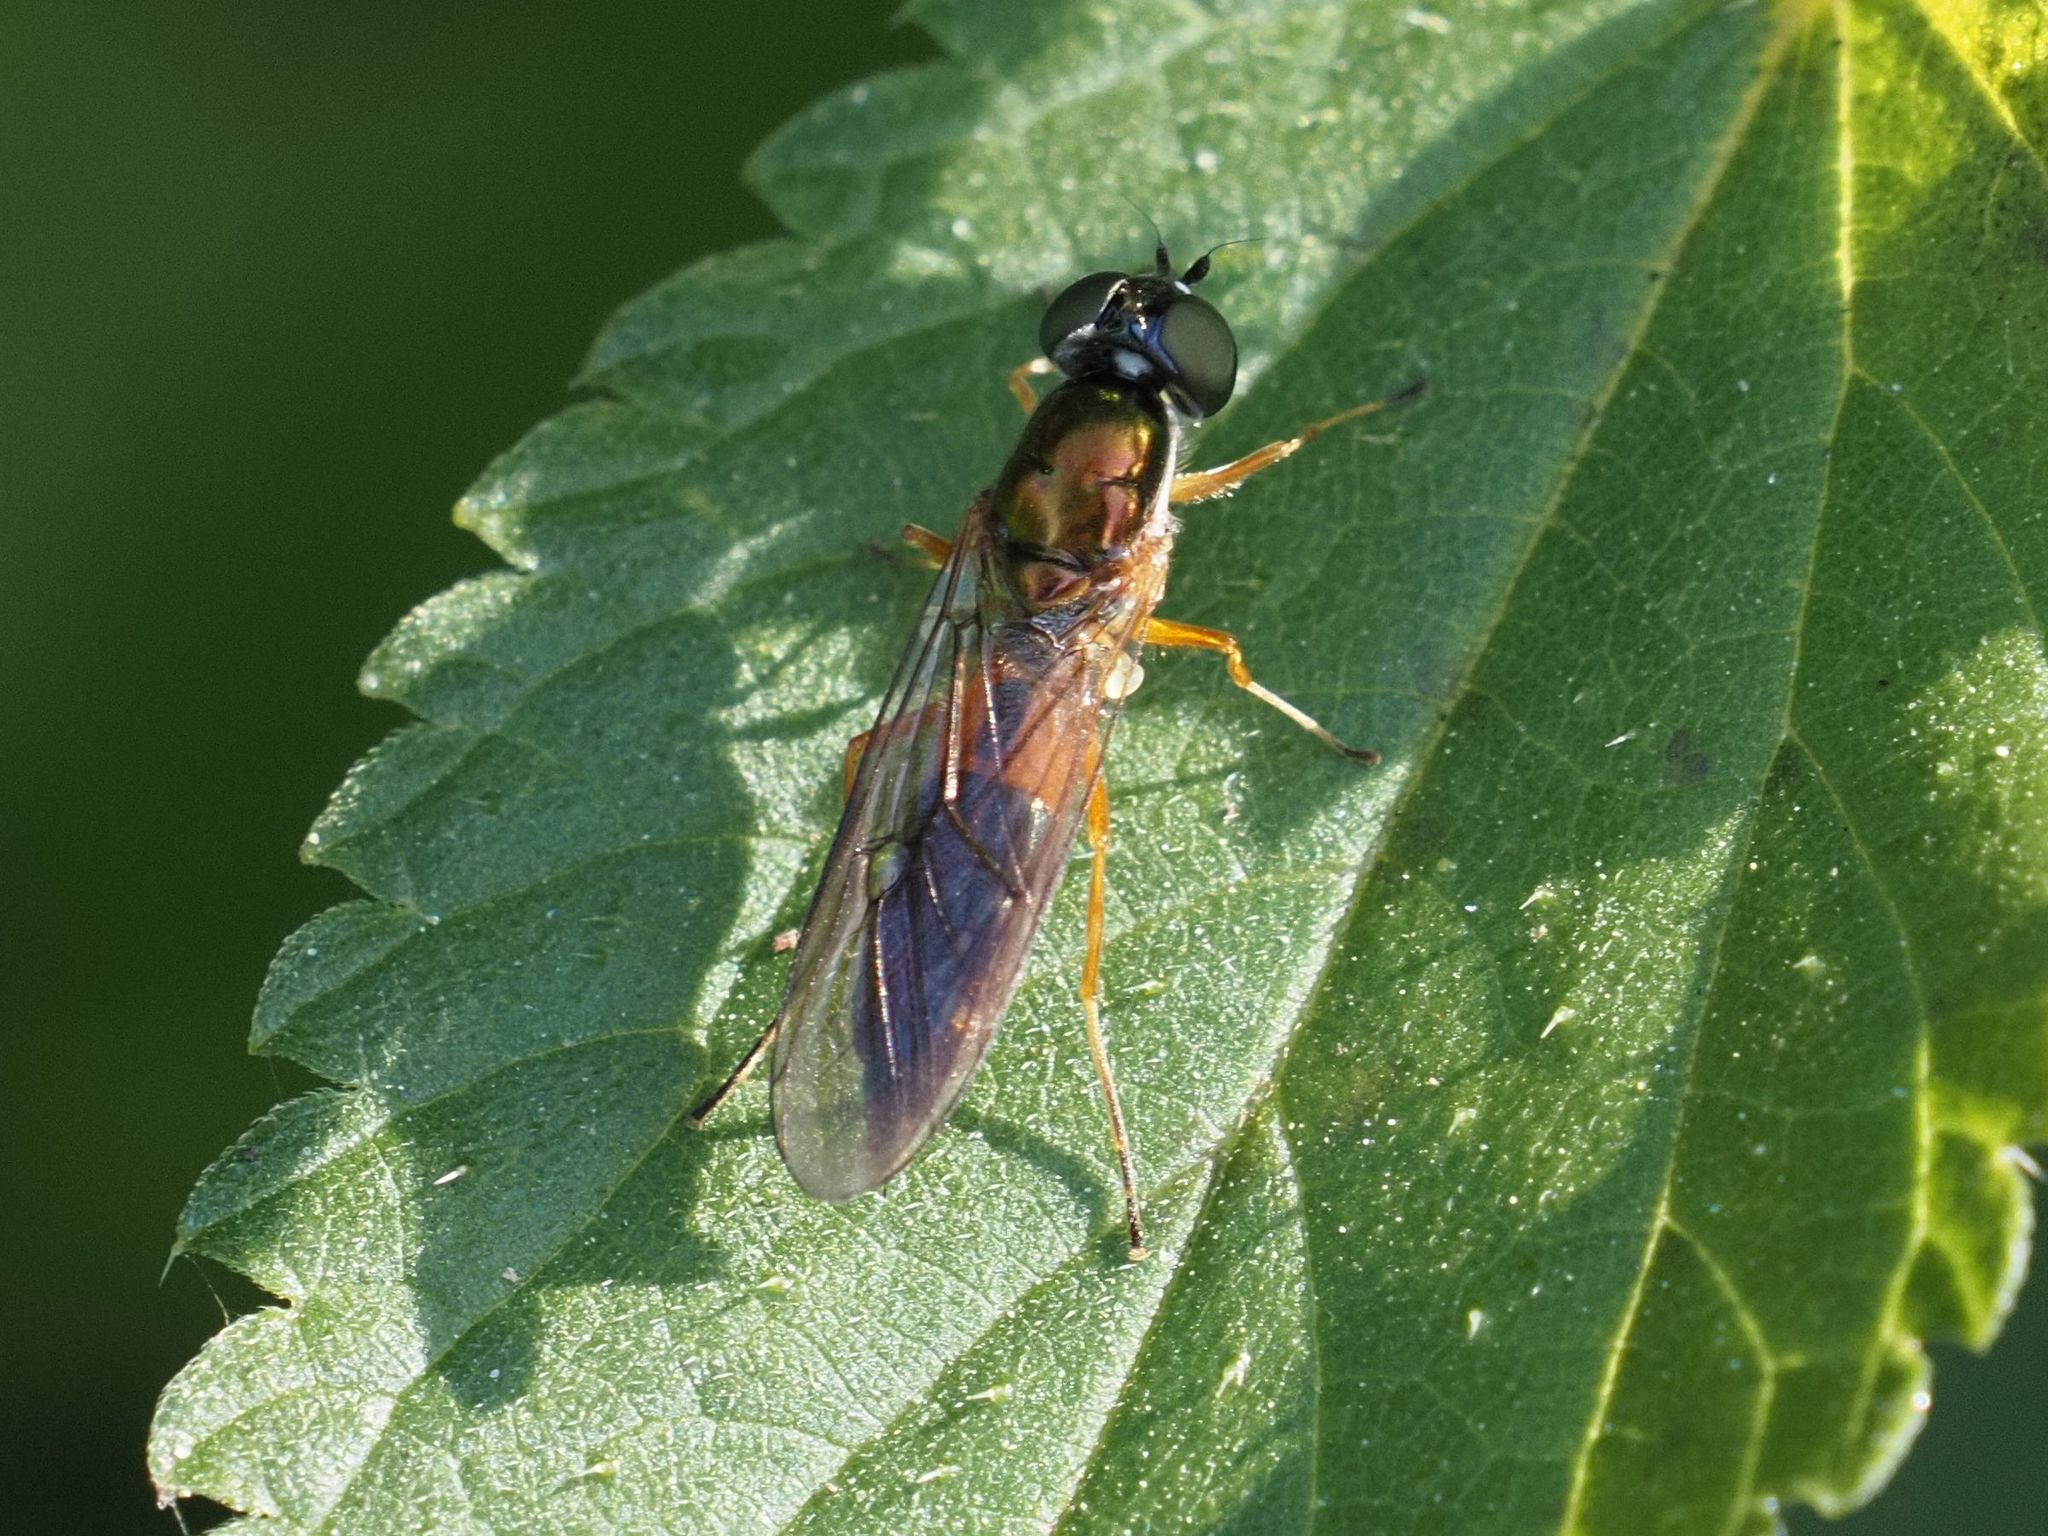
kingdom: Animalia
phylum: Arthropoda
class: Insecta
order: Diptera
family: Stratiomyidae
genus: Sargus
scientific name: Sargus bipunctatus
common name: Twin-spot centurion
